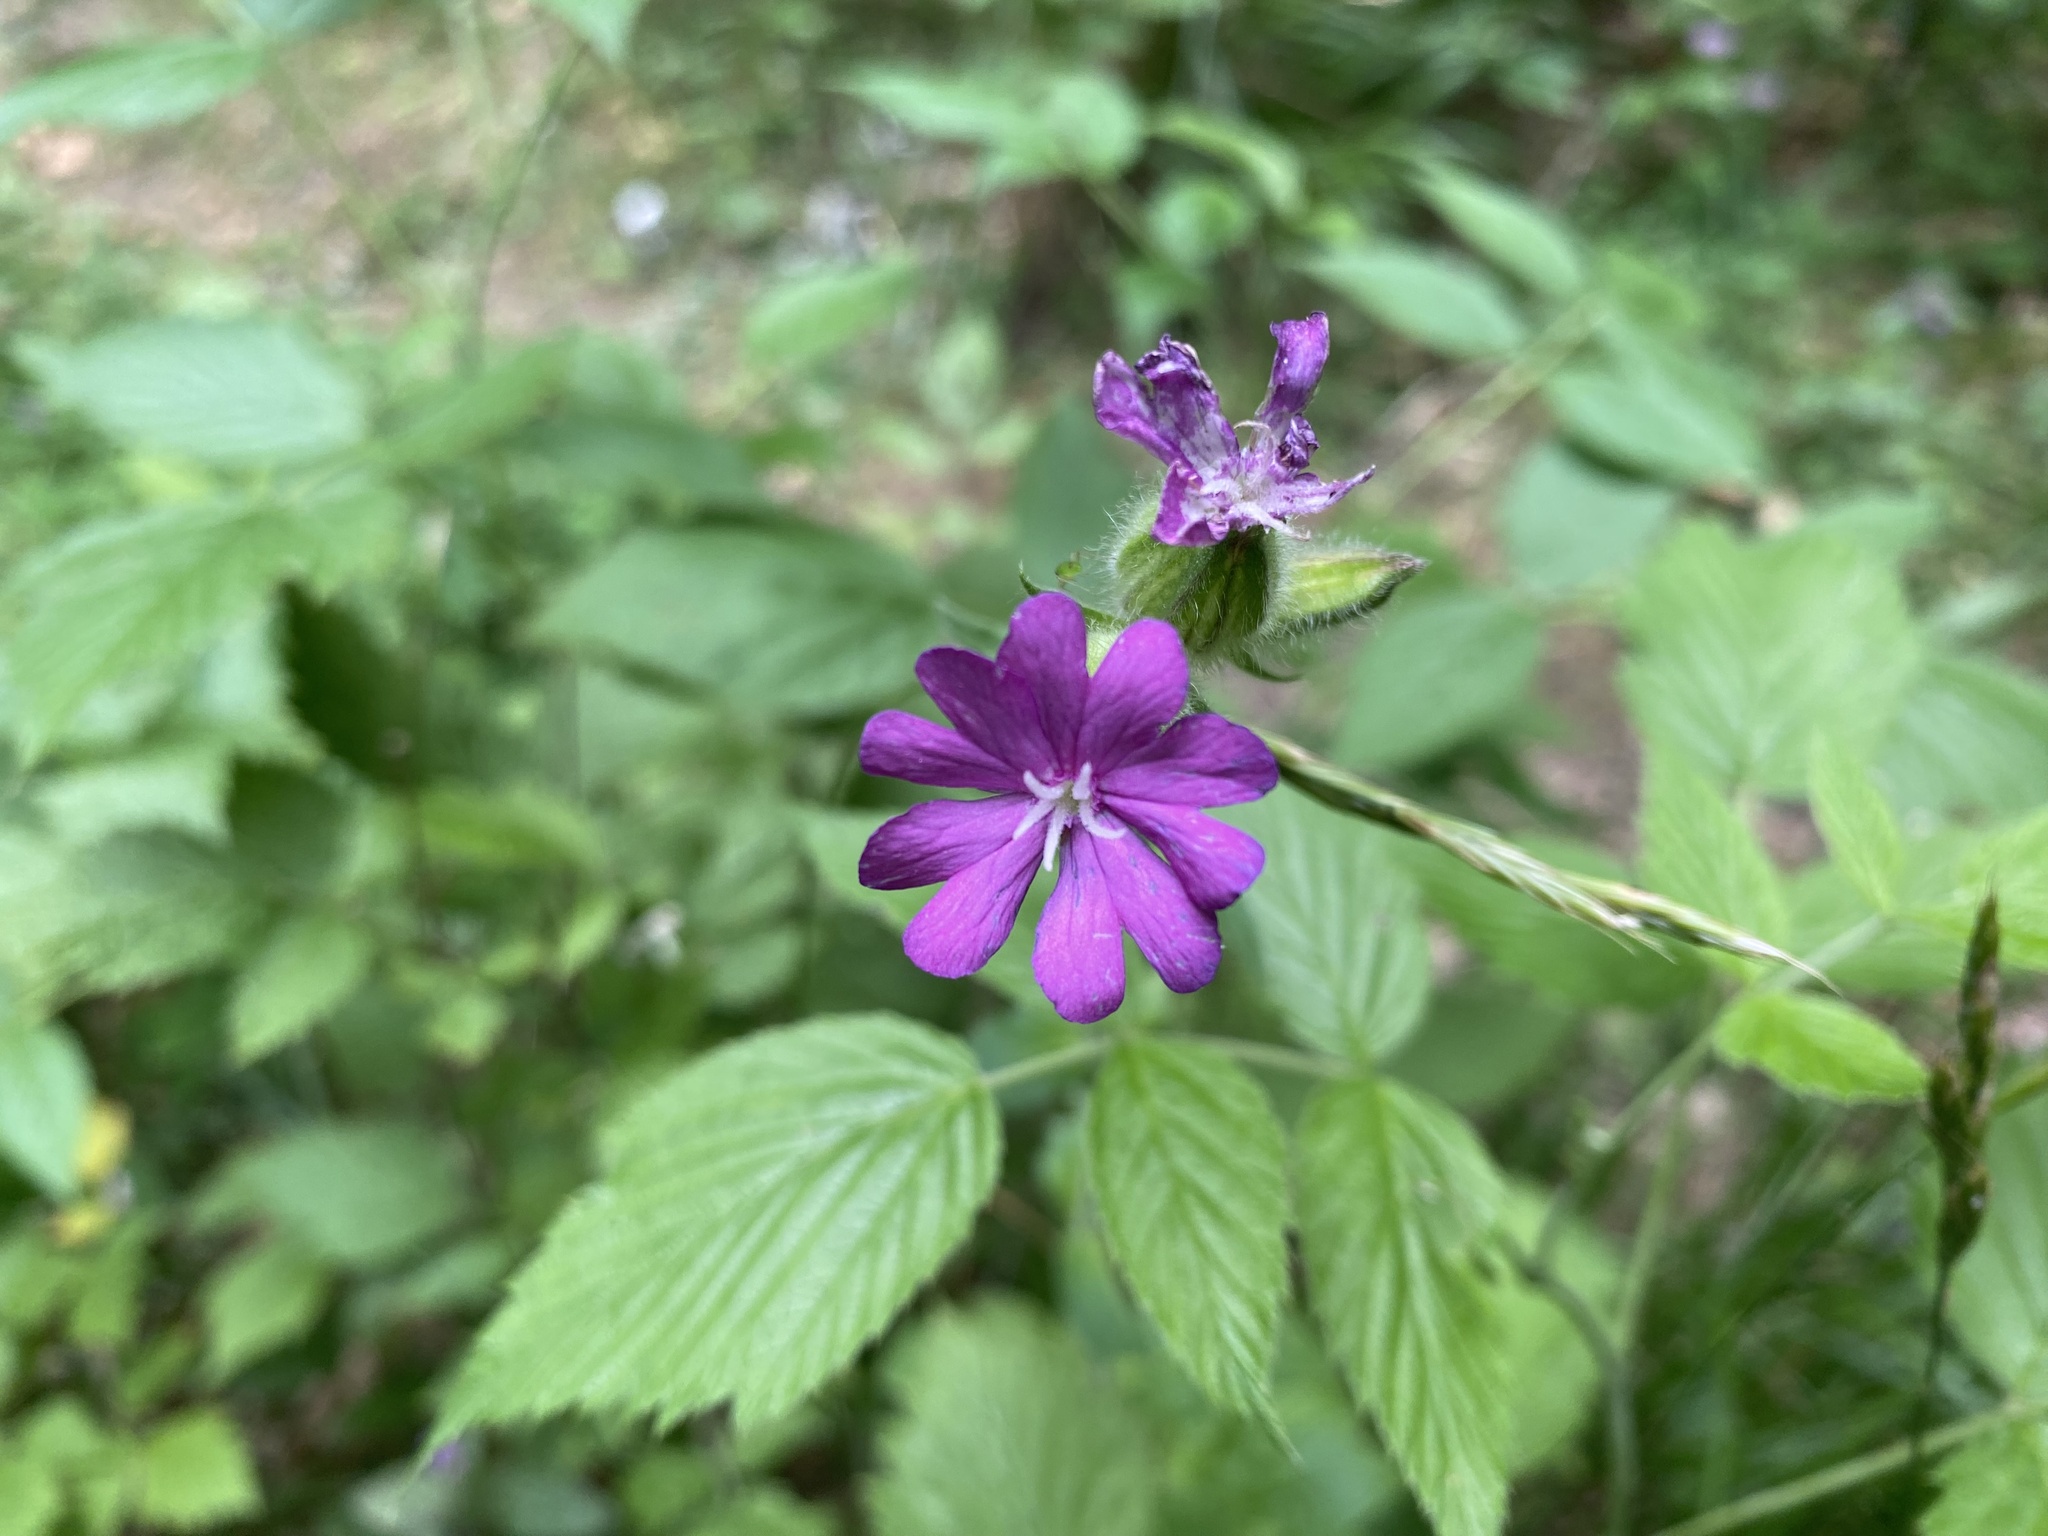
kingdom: Plantae
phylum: Tracheophyta
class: Magnoliopsida
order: Caryophyllales
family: Caryophyllaceae
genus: Silene
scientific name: Silene dioica
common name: Red campion
